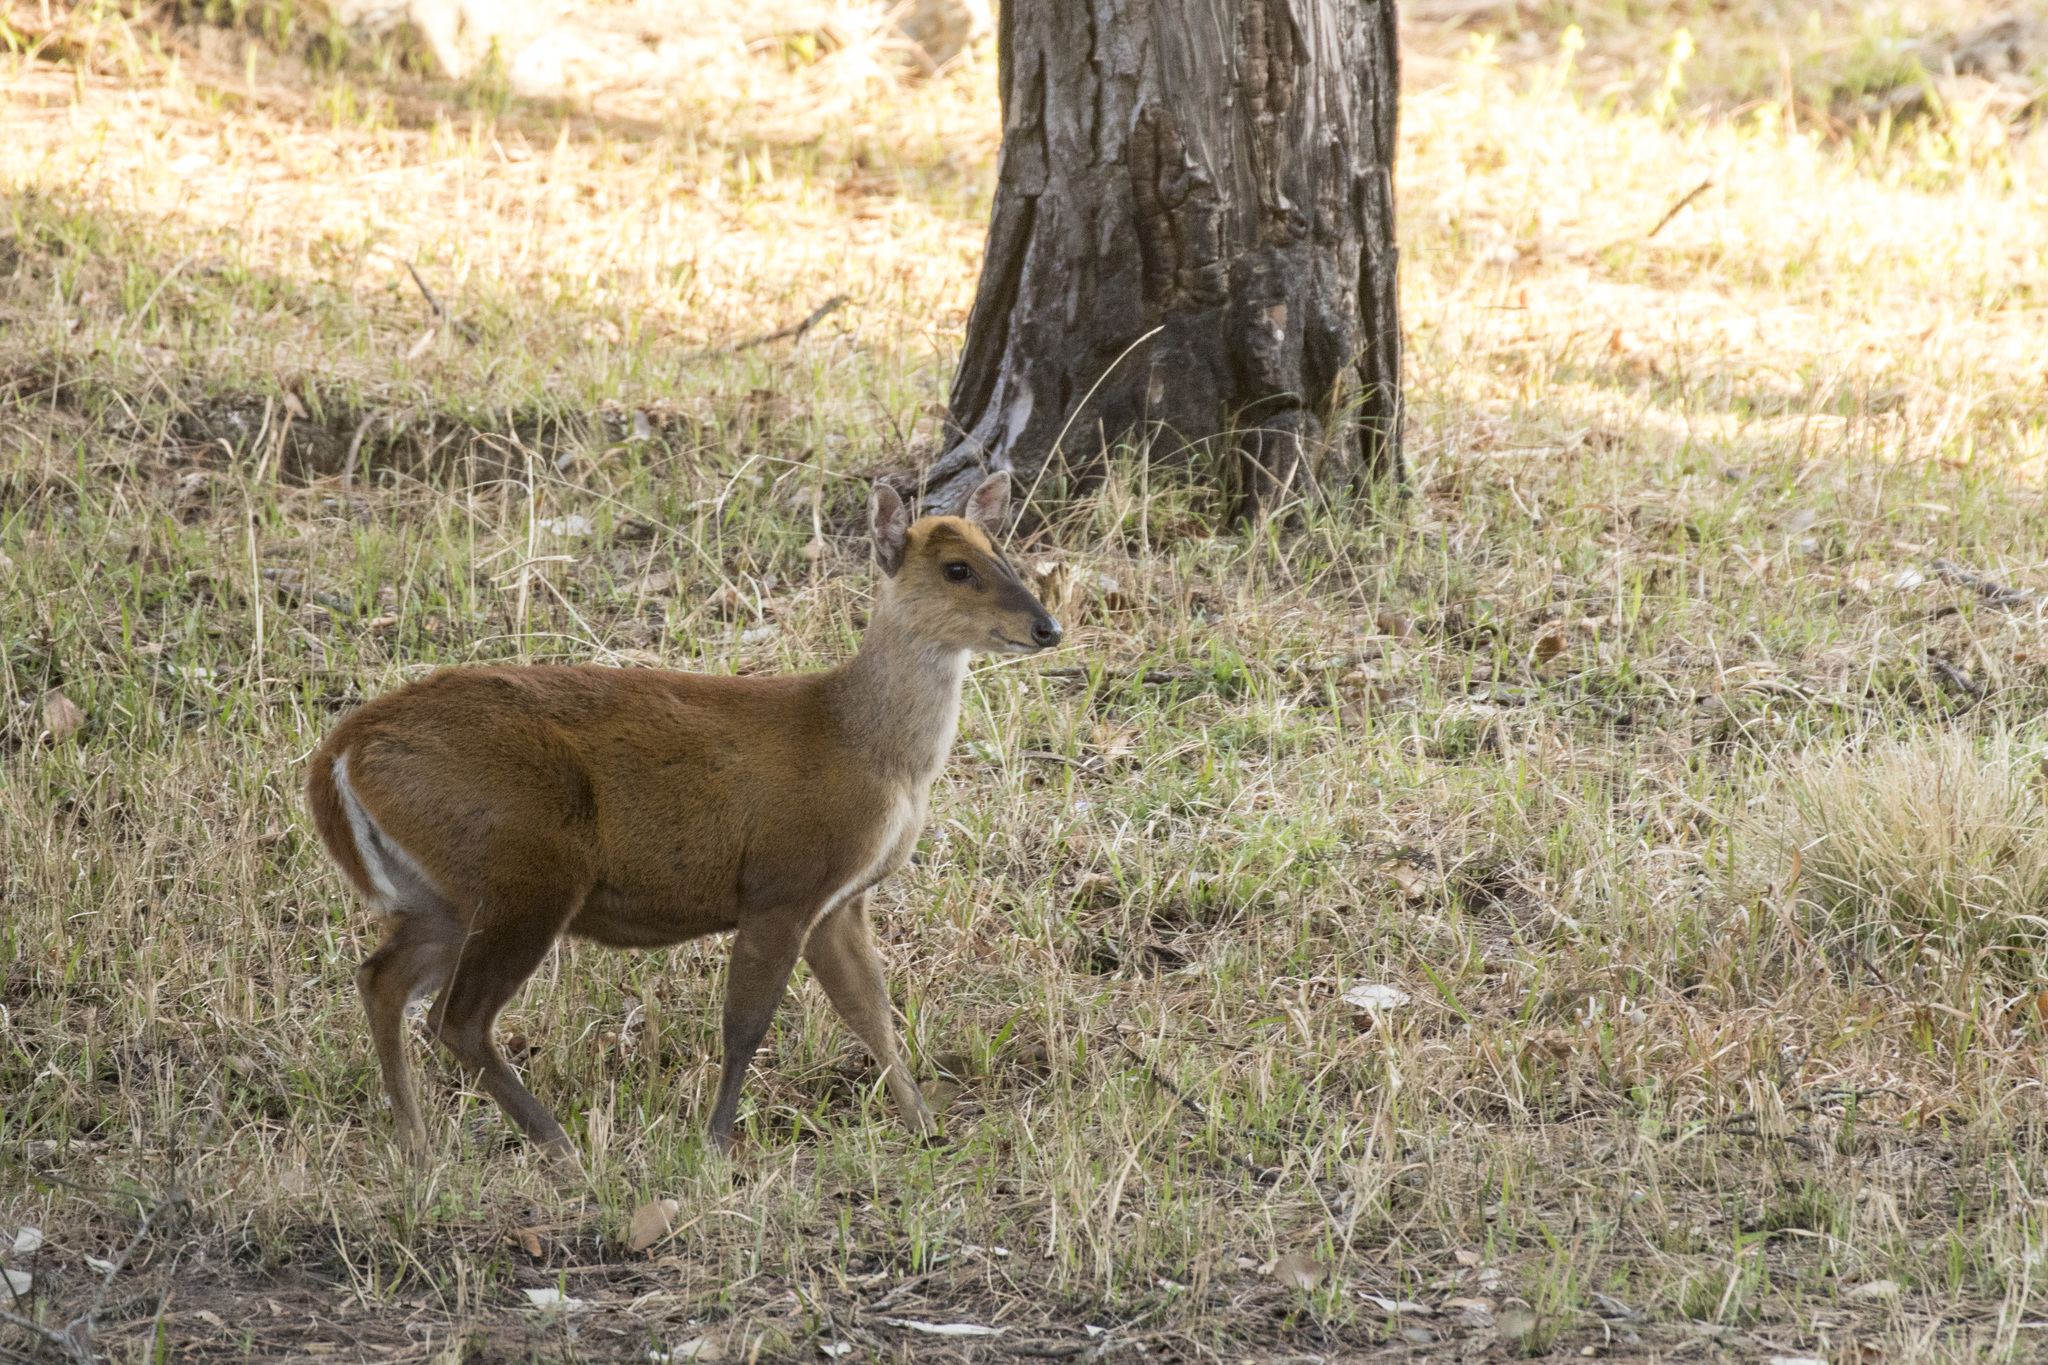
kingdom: Animalia
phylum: Chordata
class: Mammalia
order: Artiodactyla
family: Cervidae
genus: Muntiacus
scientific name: Muntiacus muntjak
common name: Indian muntjac
